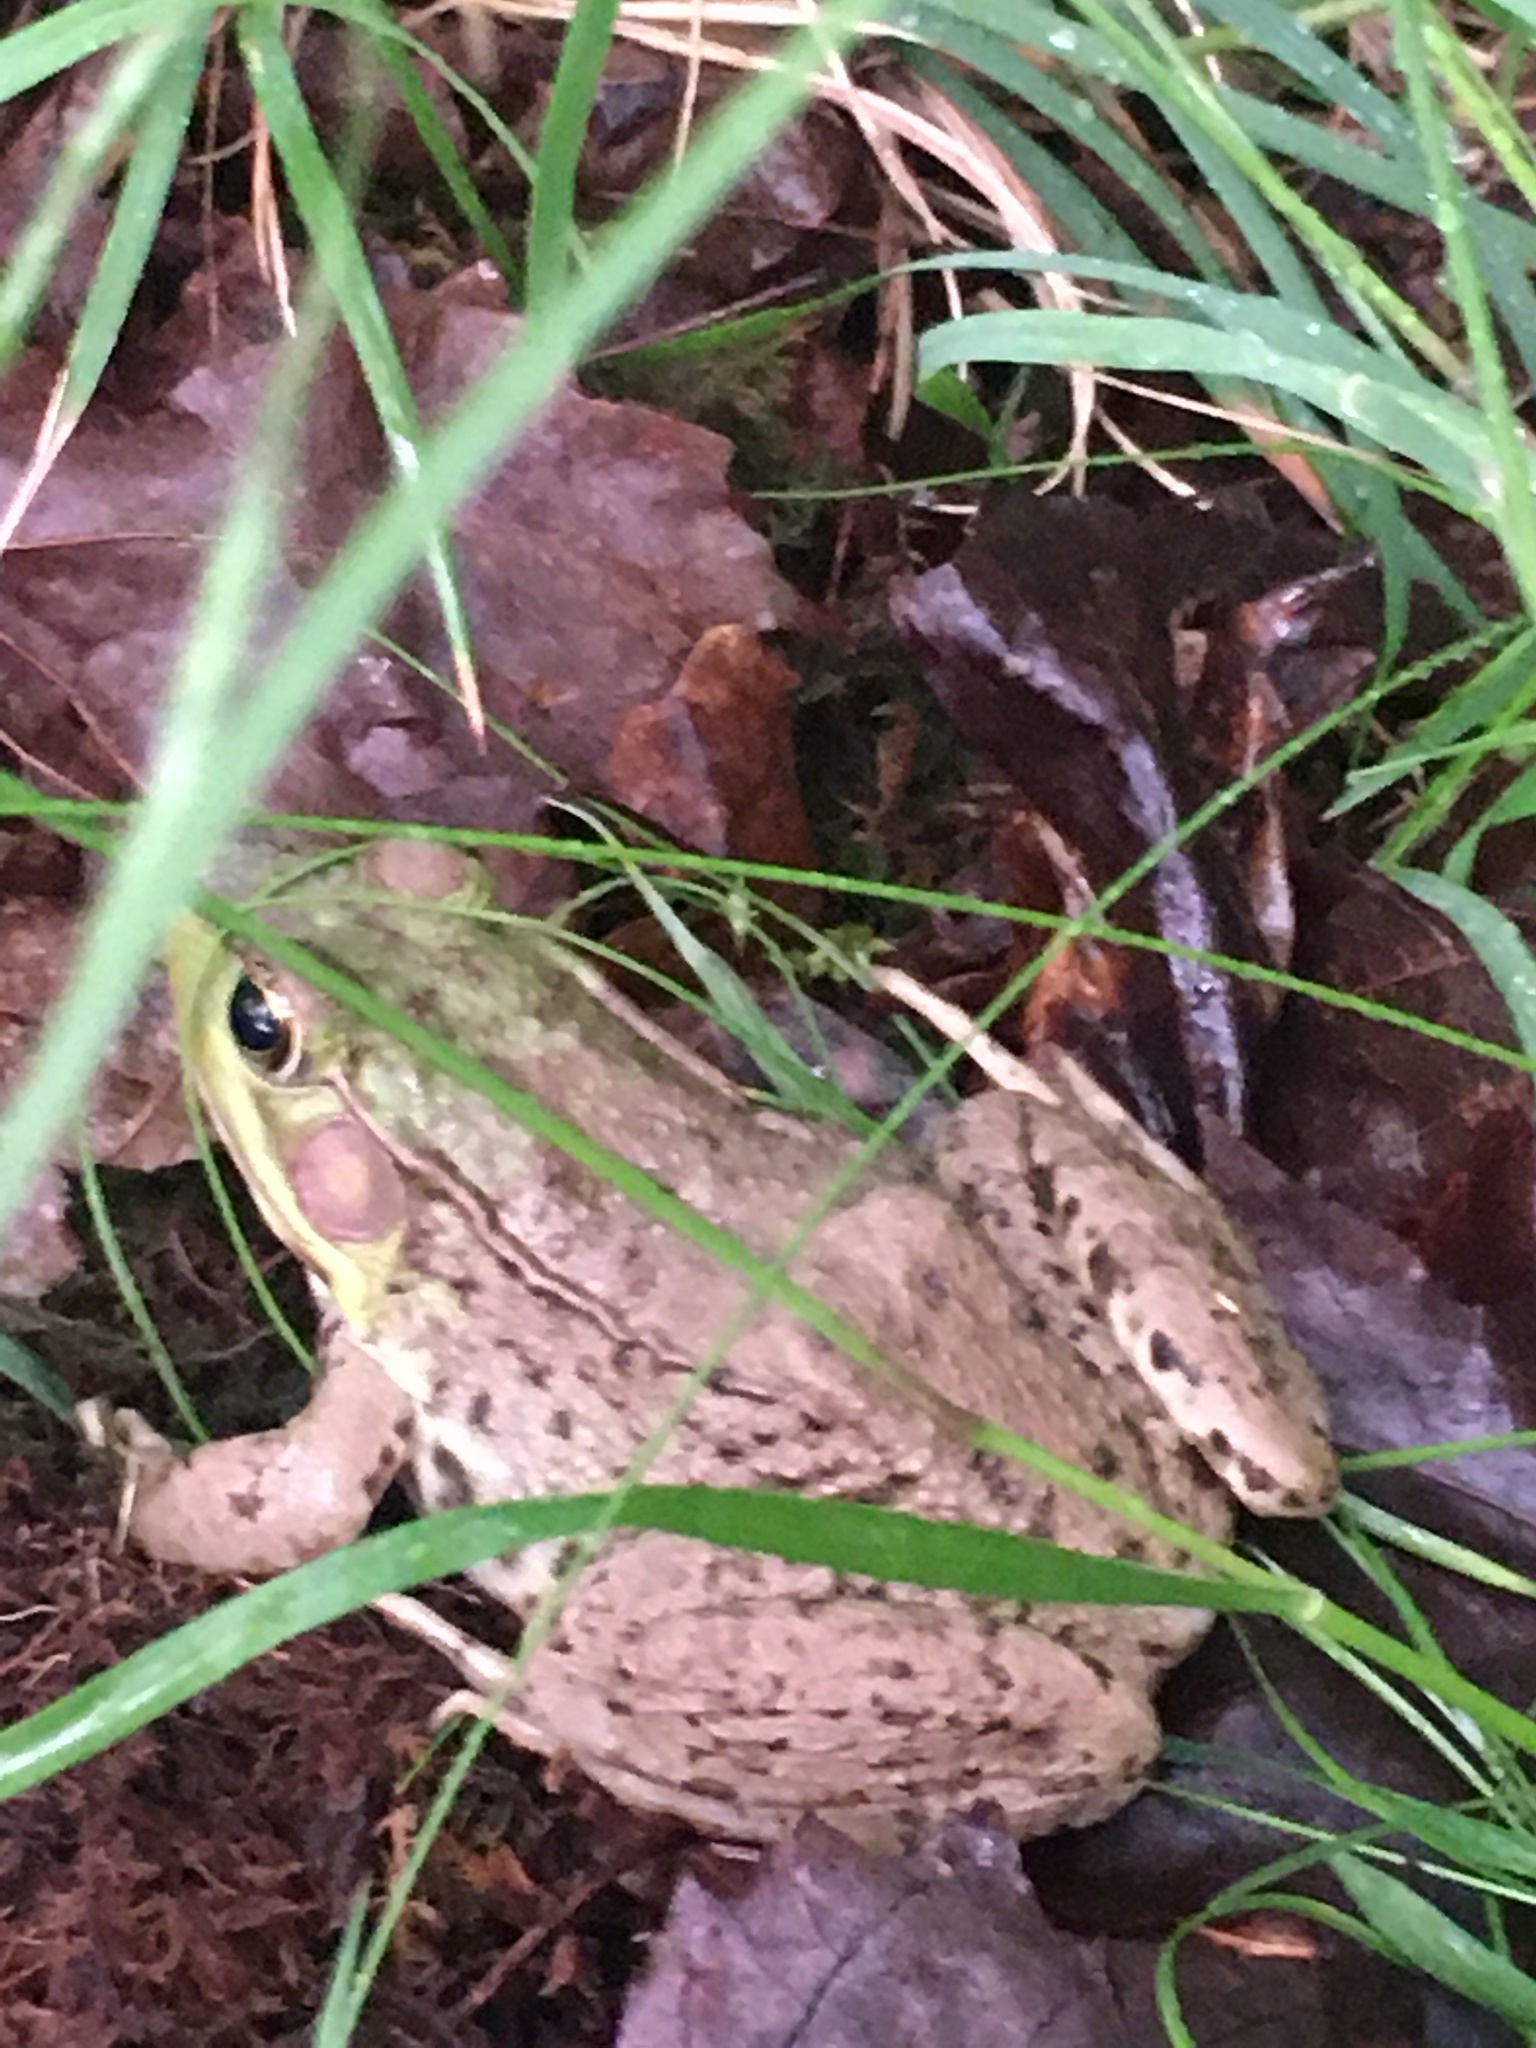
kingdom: Animalia
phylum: Chordata
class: Amphibia
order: Anura
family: Ranidae
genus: Lithobates
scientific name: Lithobates clamitans
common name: Green frog
